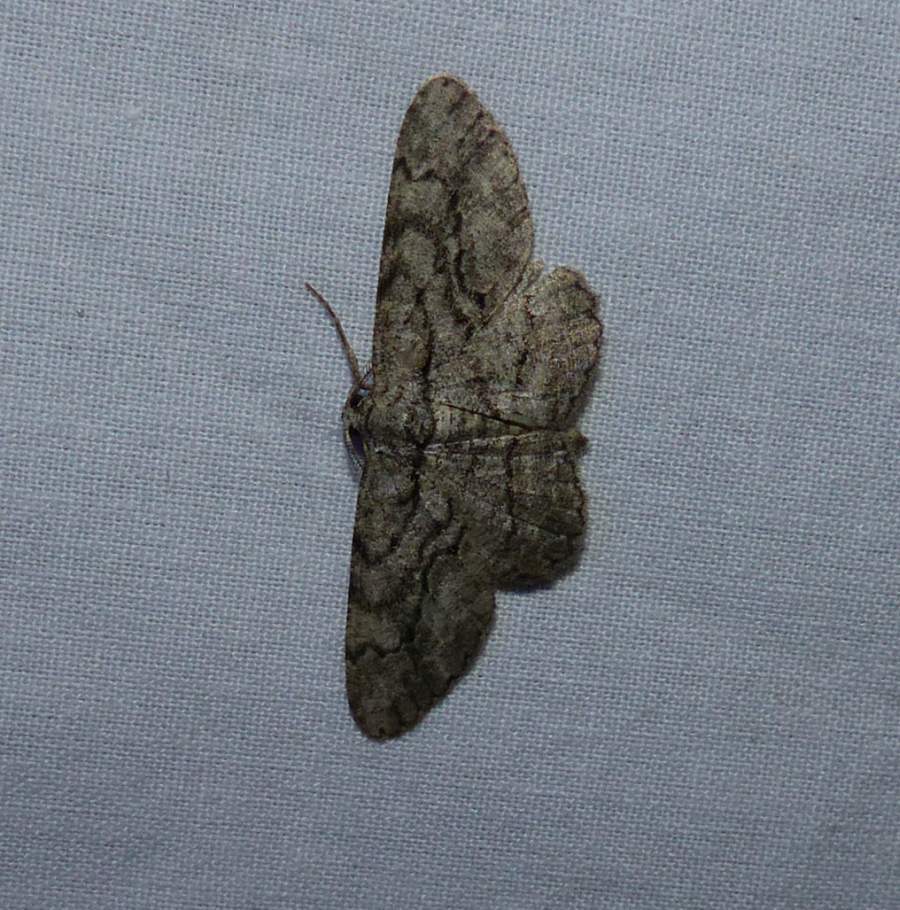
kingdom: Animalia
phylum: Arthropoda
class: Insecta
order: Lepidoptera
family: Geometridae
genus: Anavitrinella
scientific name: Anavitrinella pampinaria
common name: Common gray
